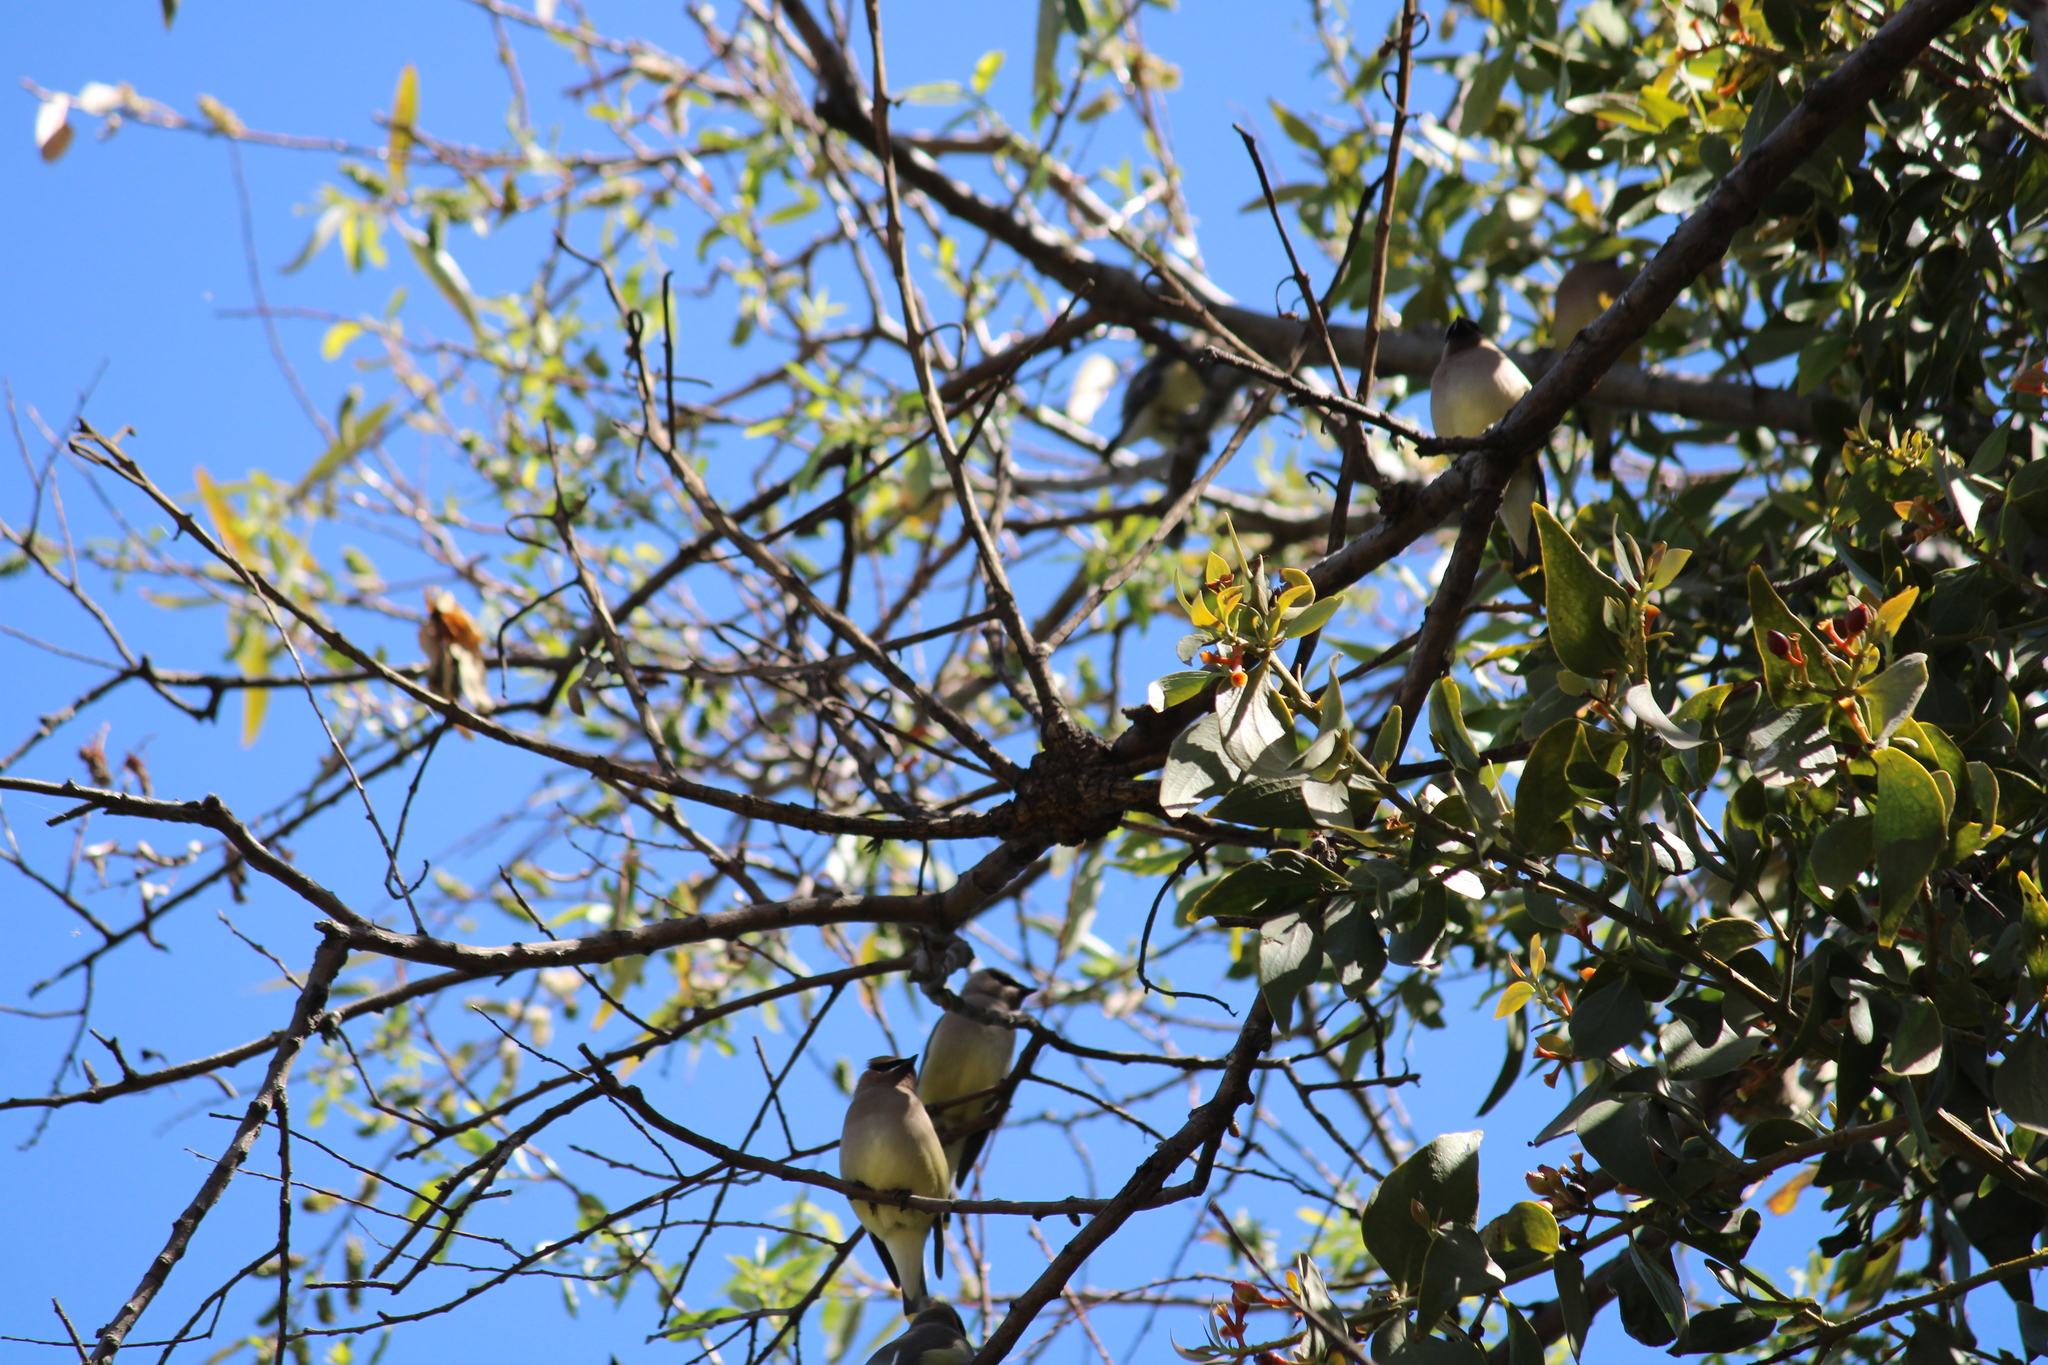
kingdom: Animalia
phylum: Chordata
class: Aves
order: Passeriformes
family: Bombycillidae
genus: Bombycilla
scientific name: Bombycilla cedrorum
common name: Cedar waxwing
